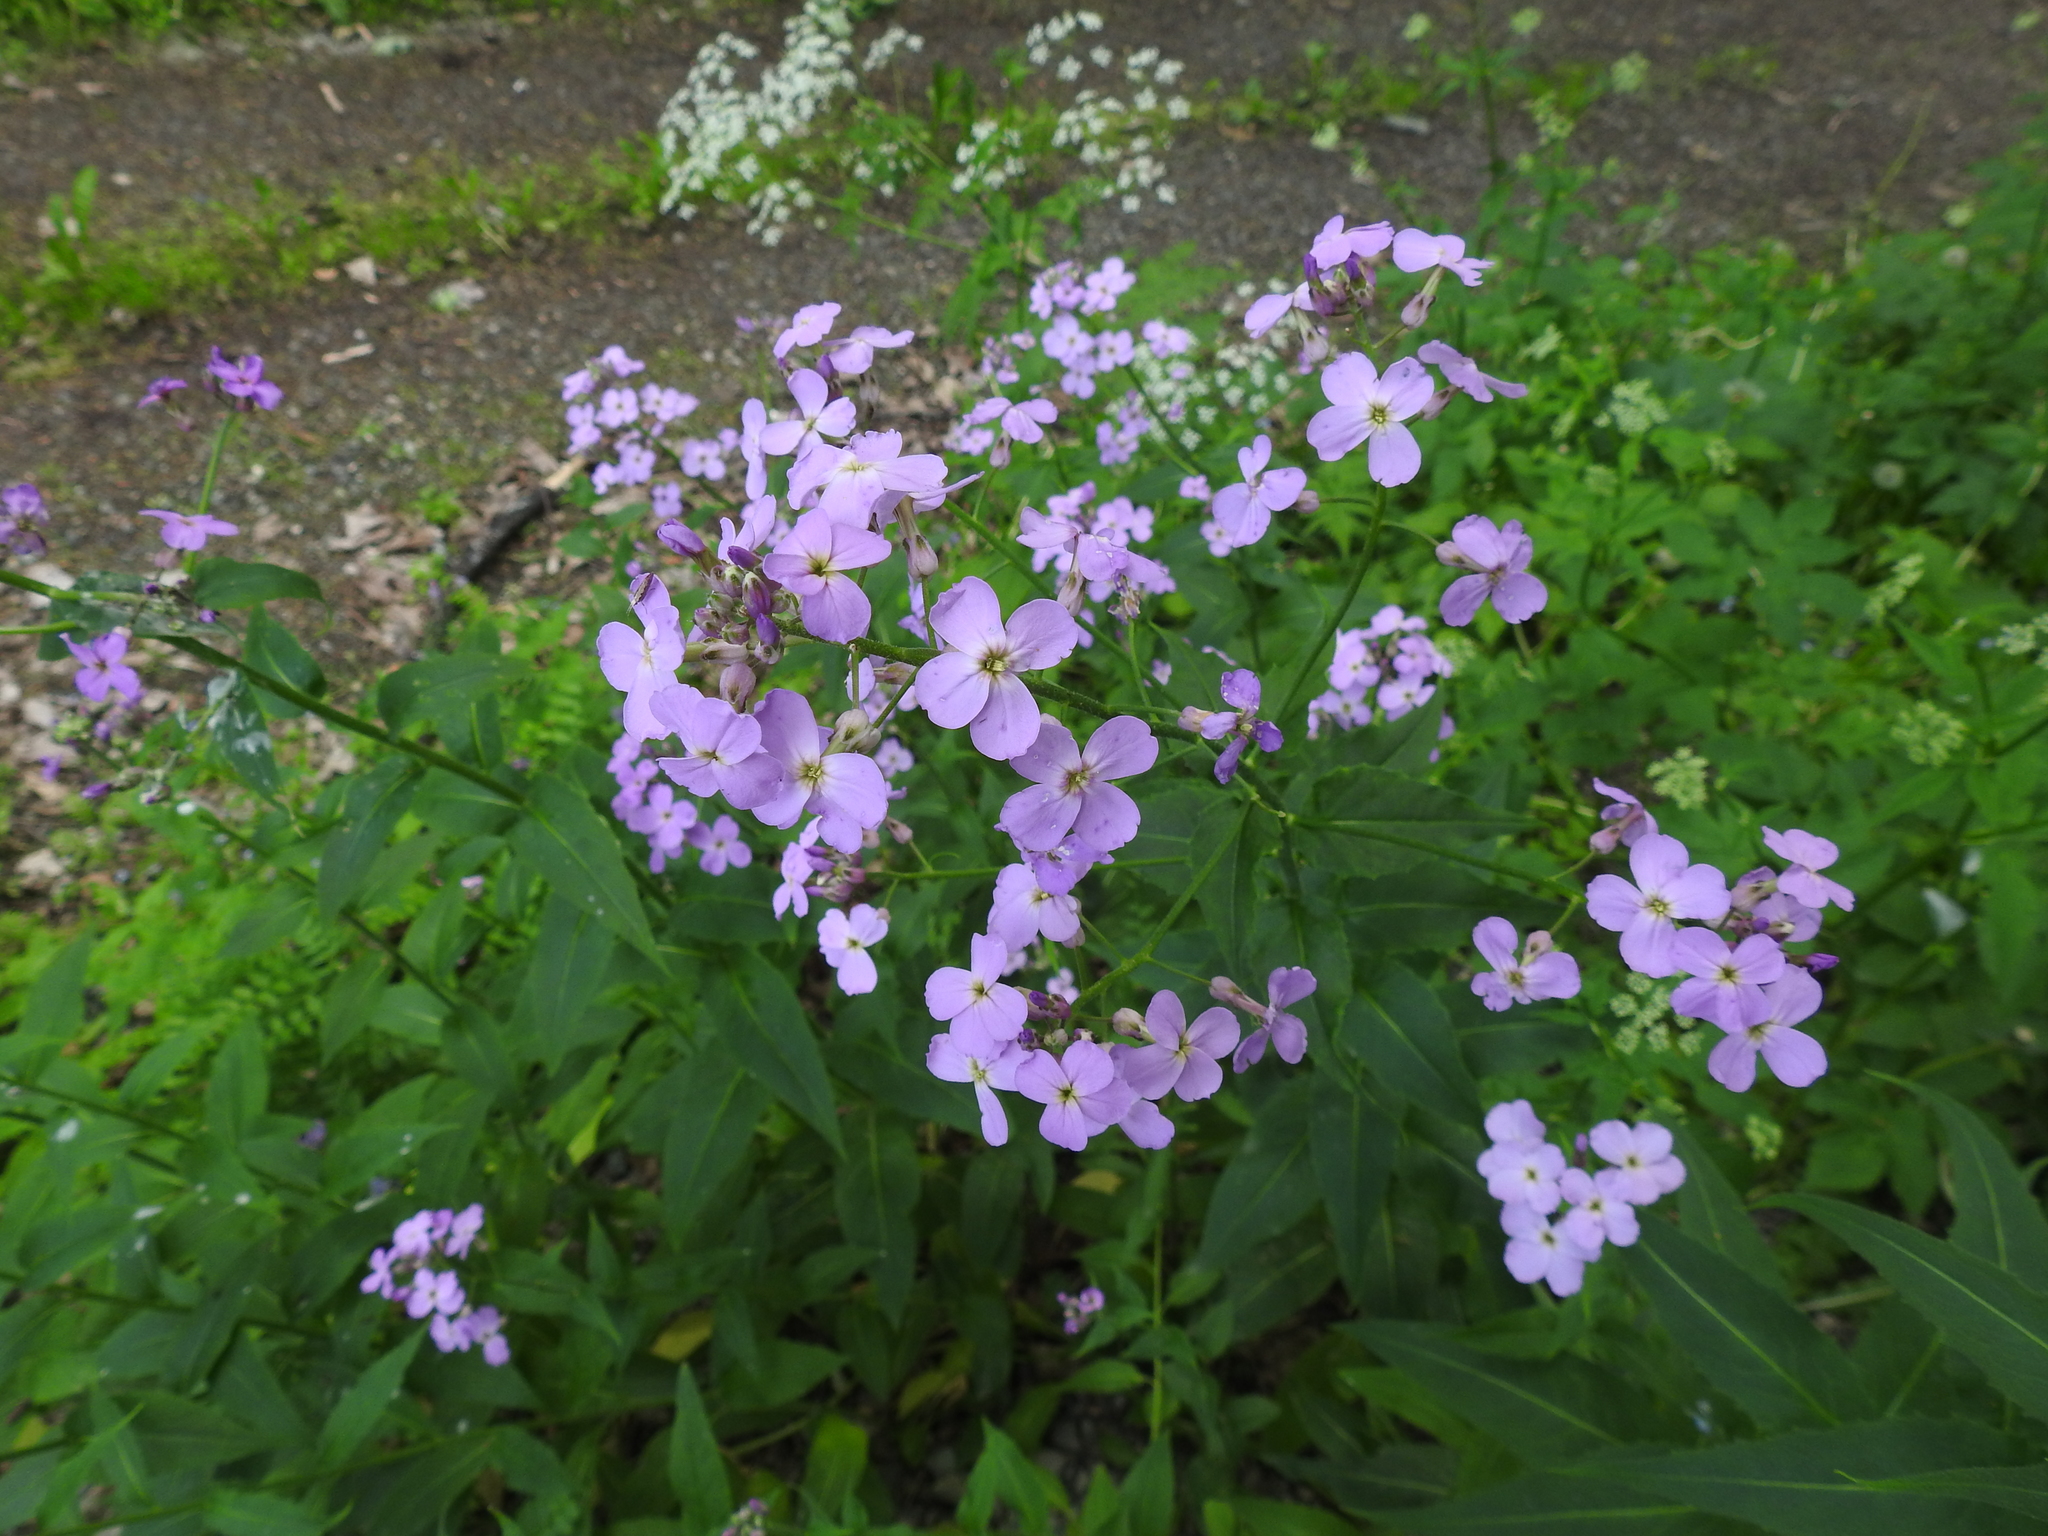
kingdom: Plantae
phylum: Tracheophyta
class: Magnoliopsida
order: Brassicales
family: Brassicaceae
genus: Hesperis
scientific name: Hesperis matronalis
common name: Dame's-violet
